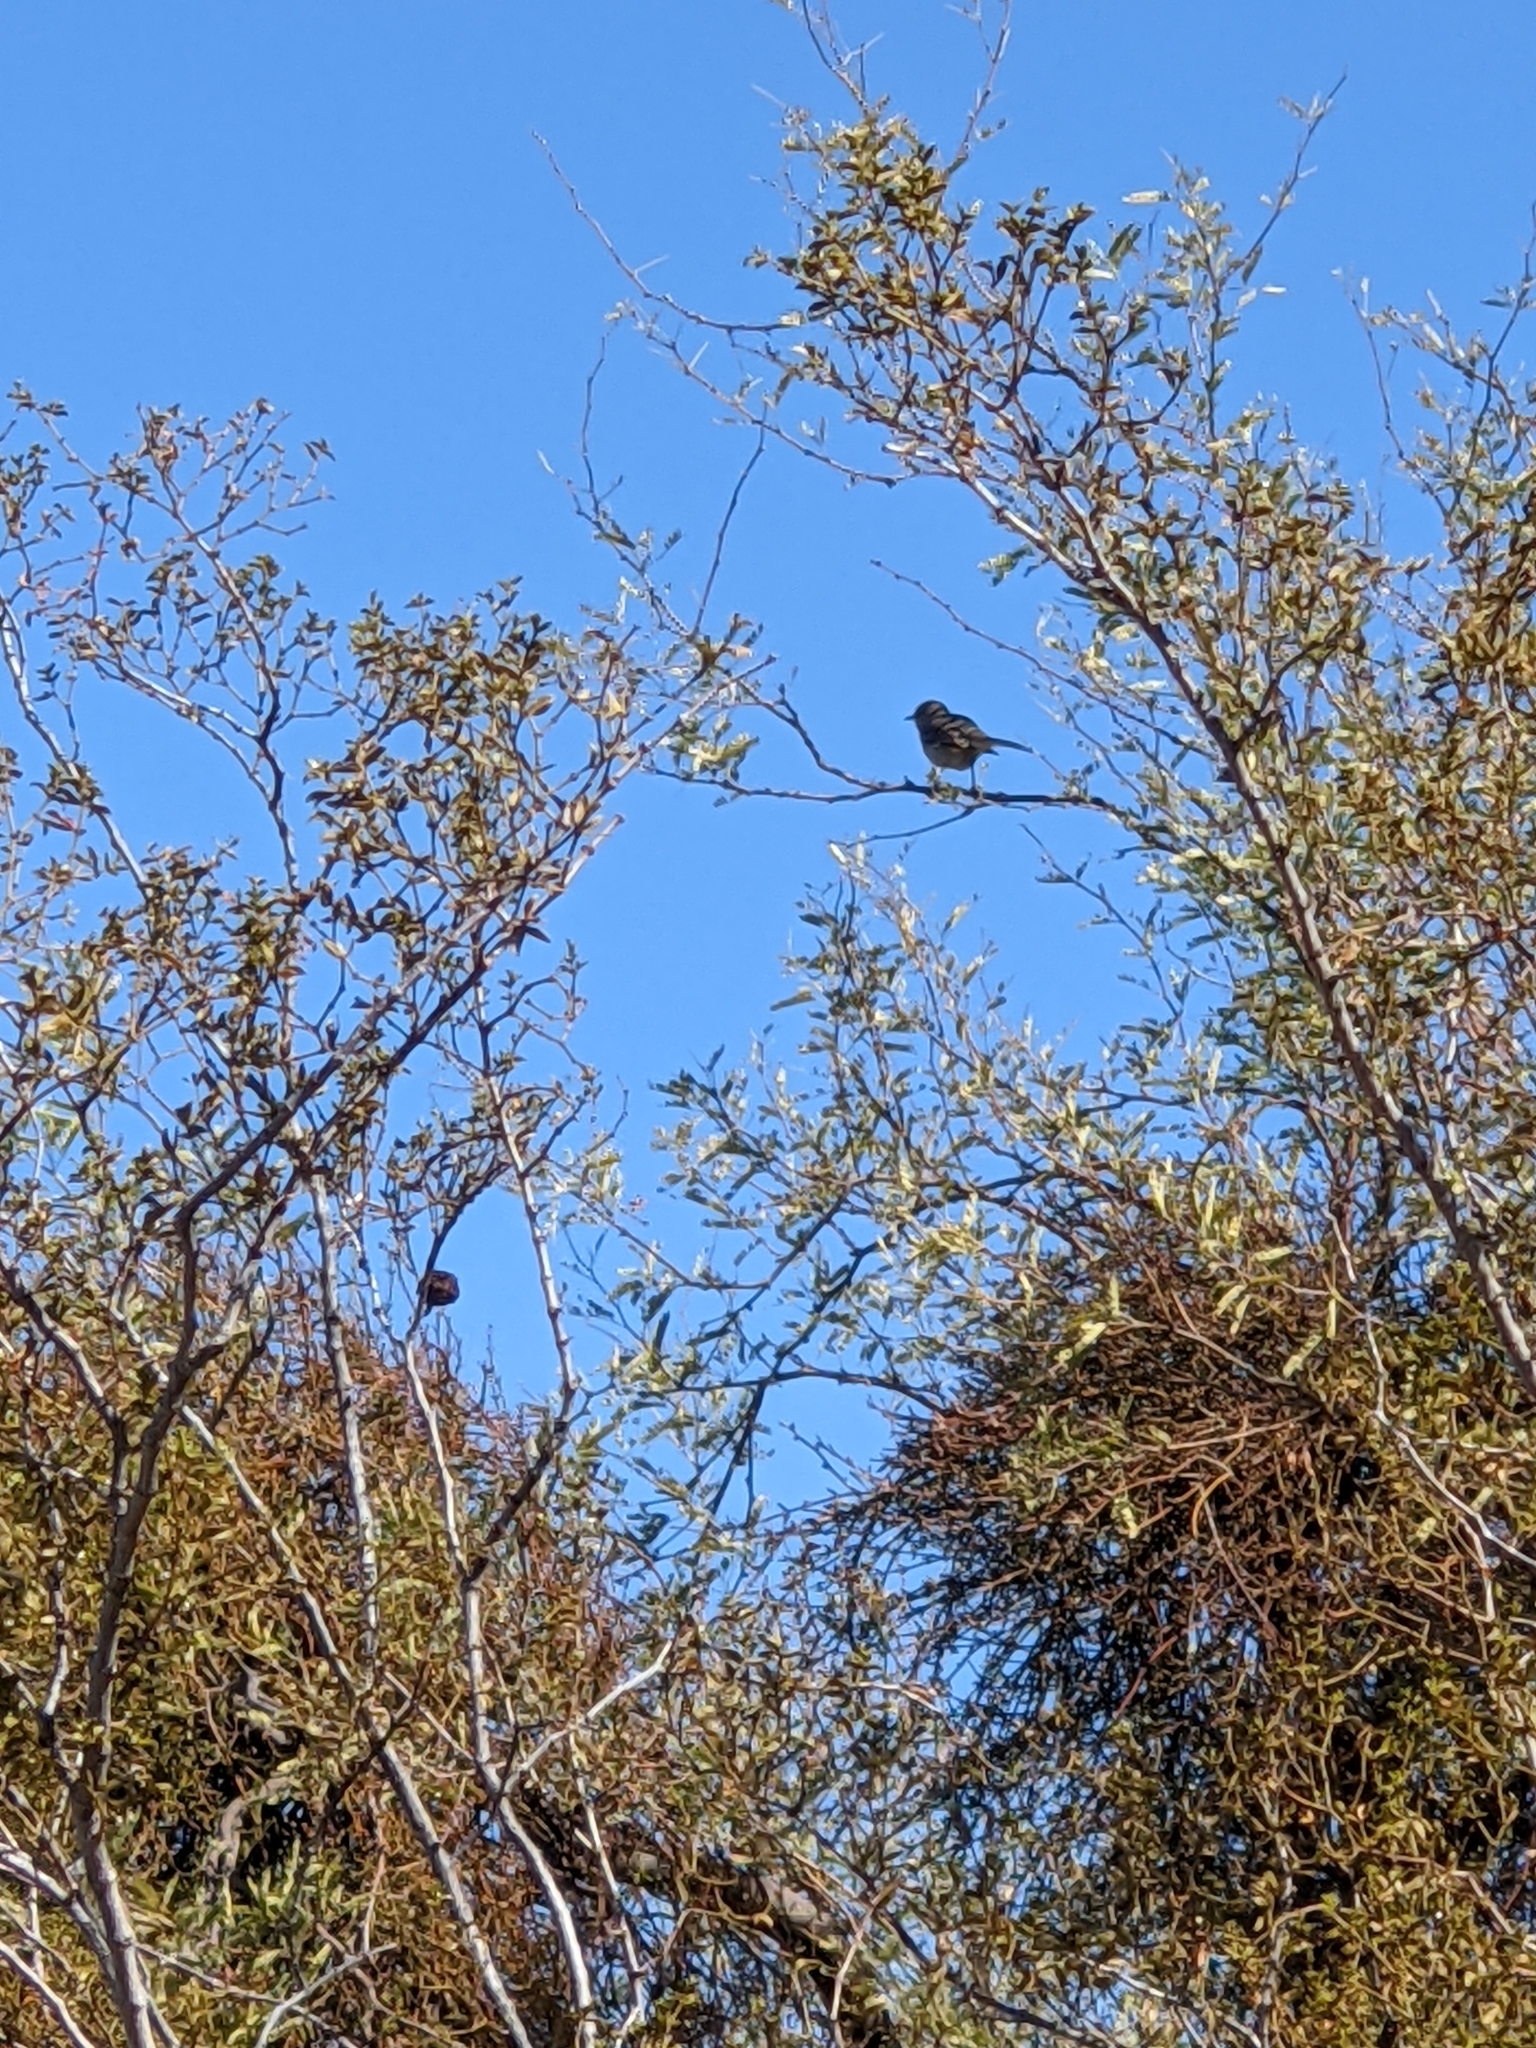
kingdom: Animalia
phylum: Chordata
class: Aves
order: Passeriformes
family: Mimidae
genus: Mimus
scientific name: Mimus polyglottos
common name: Northern mockingbird
